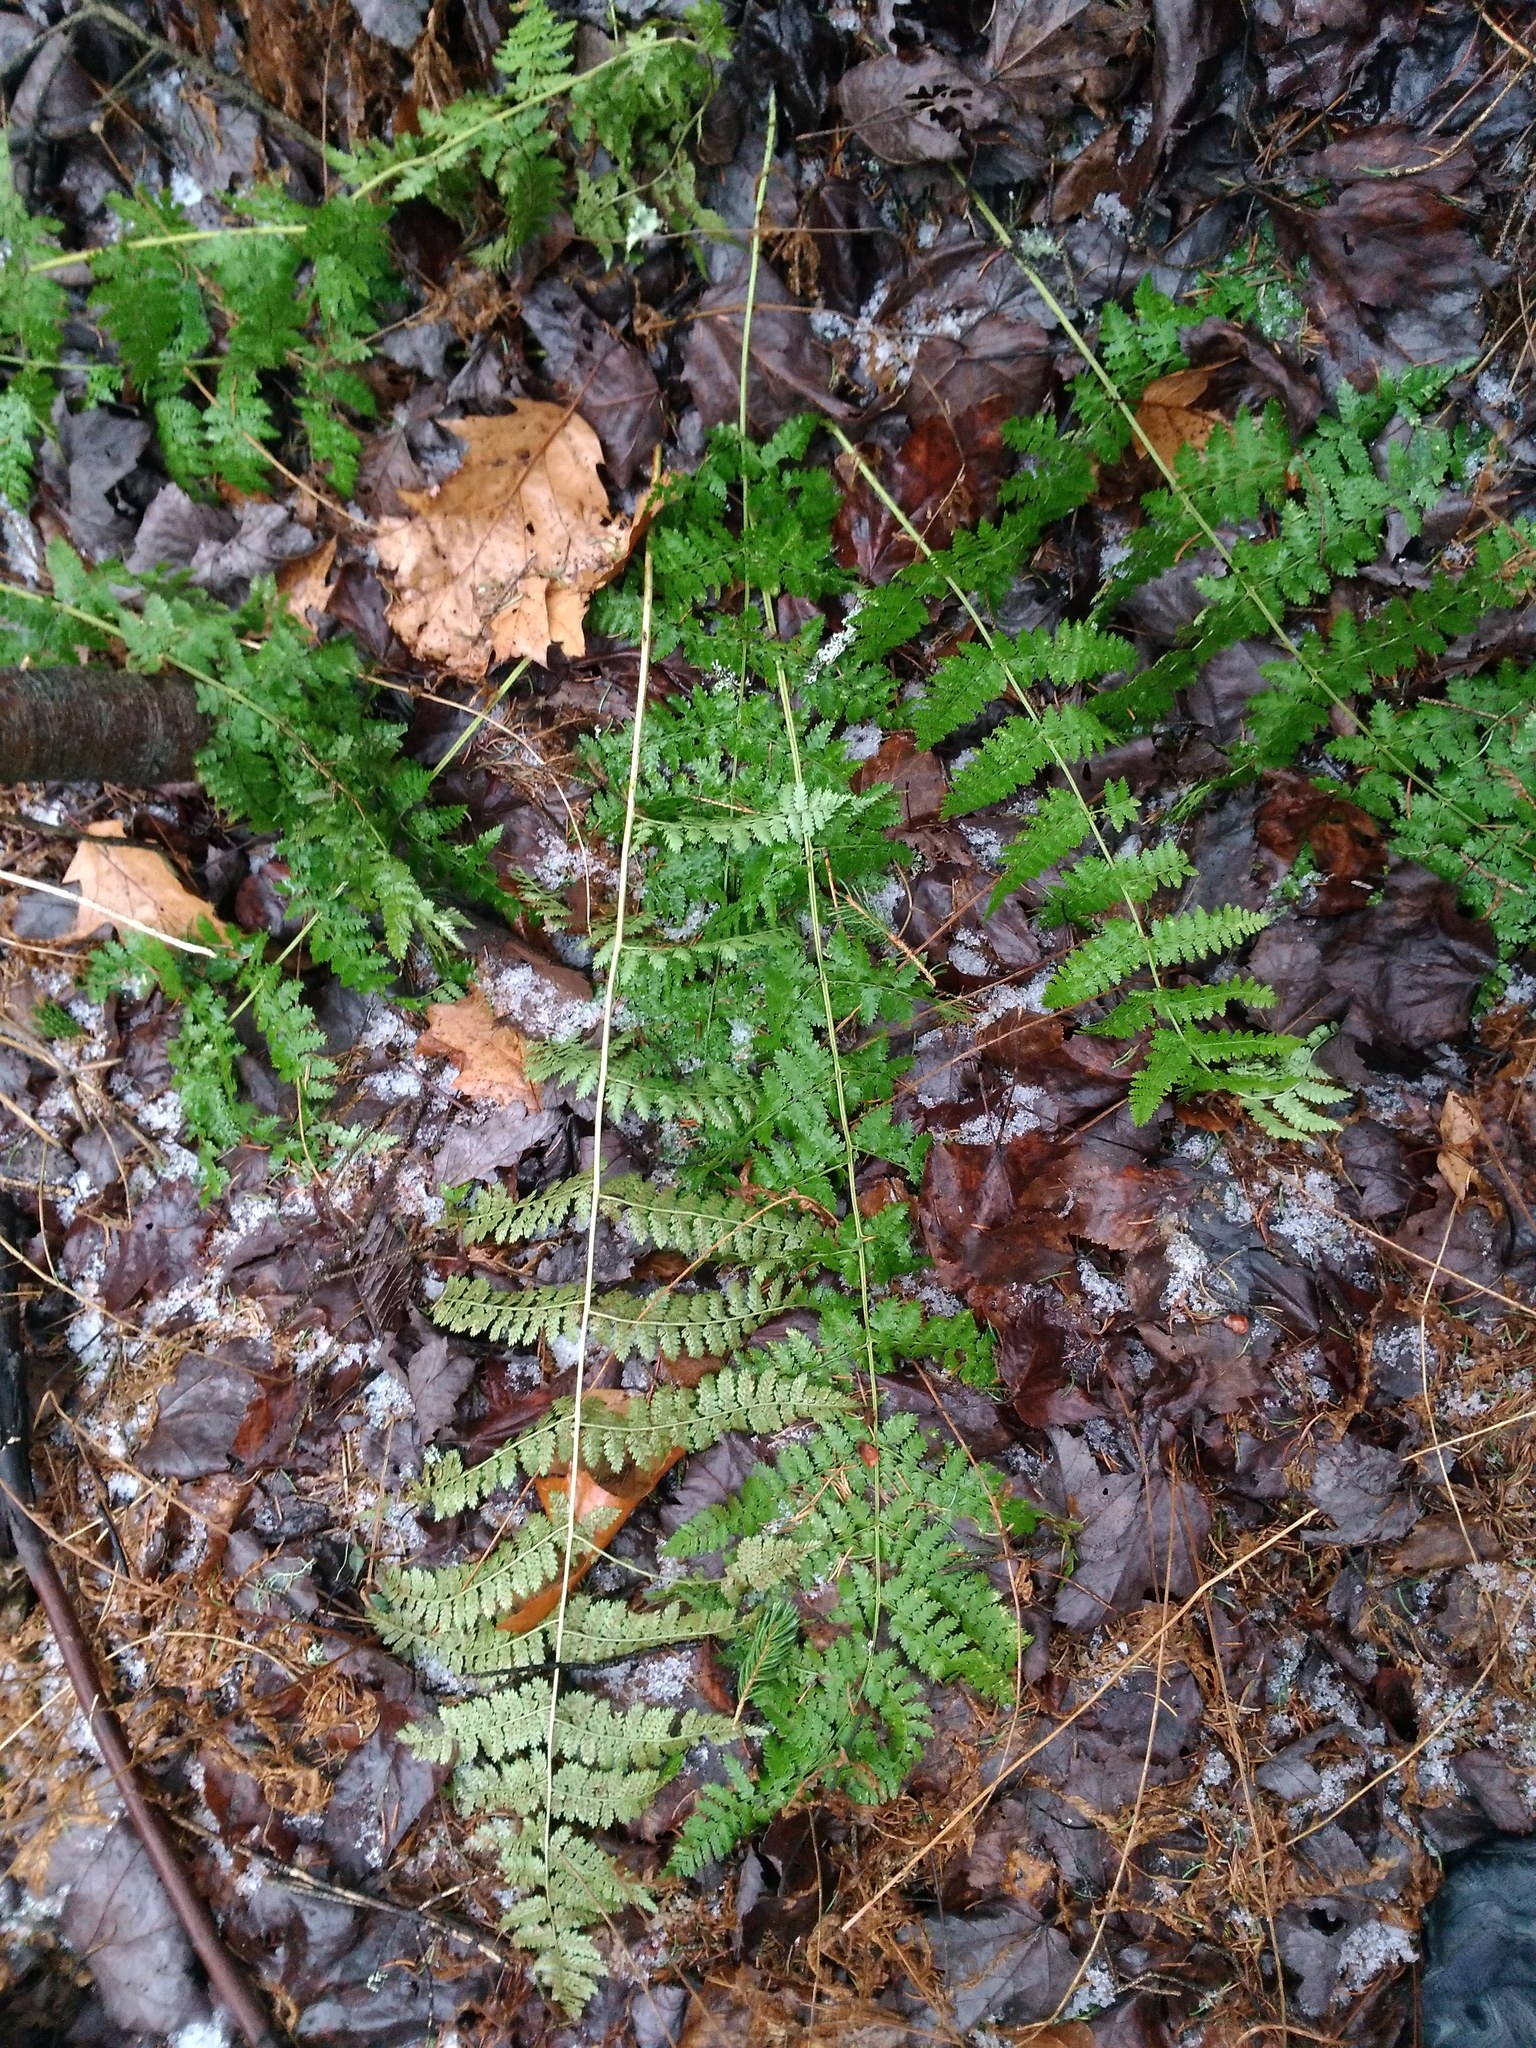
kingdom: Plantae
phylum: Tracheophyta
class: Polypodiopsida
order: Polypodiales
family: Dryopteridaceae
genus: Dryopteris
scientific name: Dryopteris intermedia
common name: Evergreen wood fern
